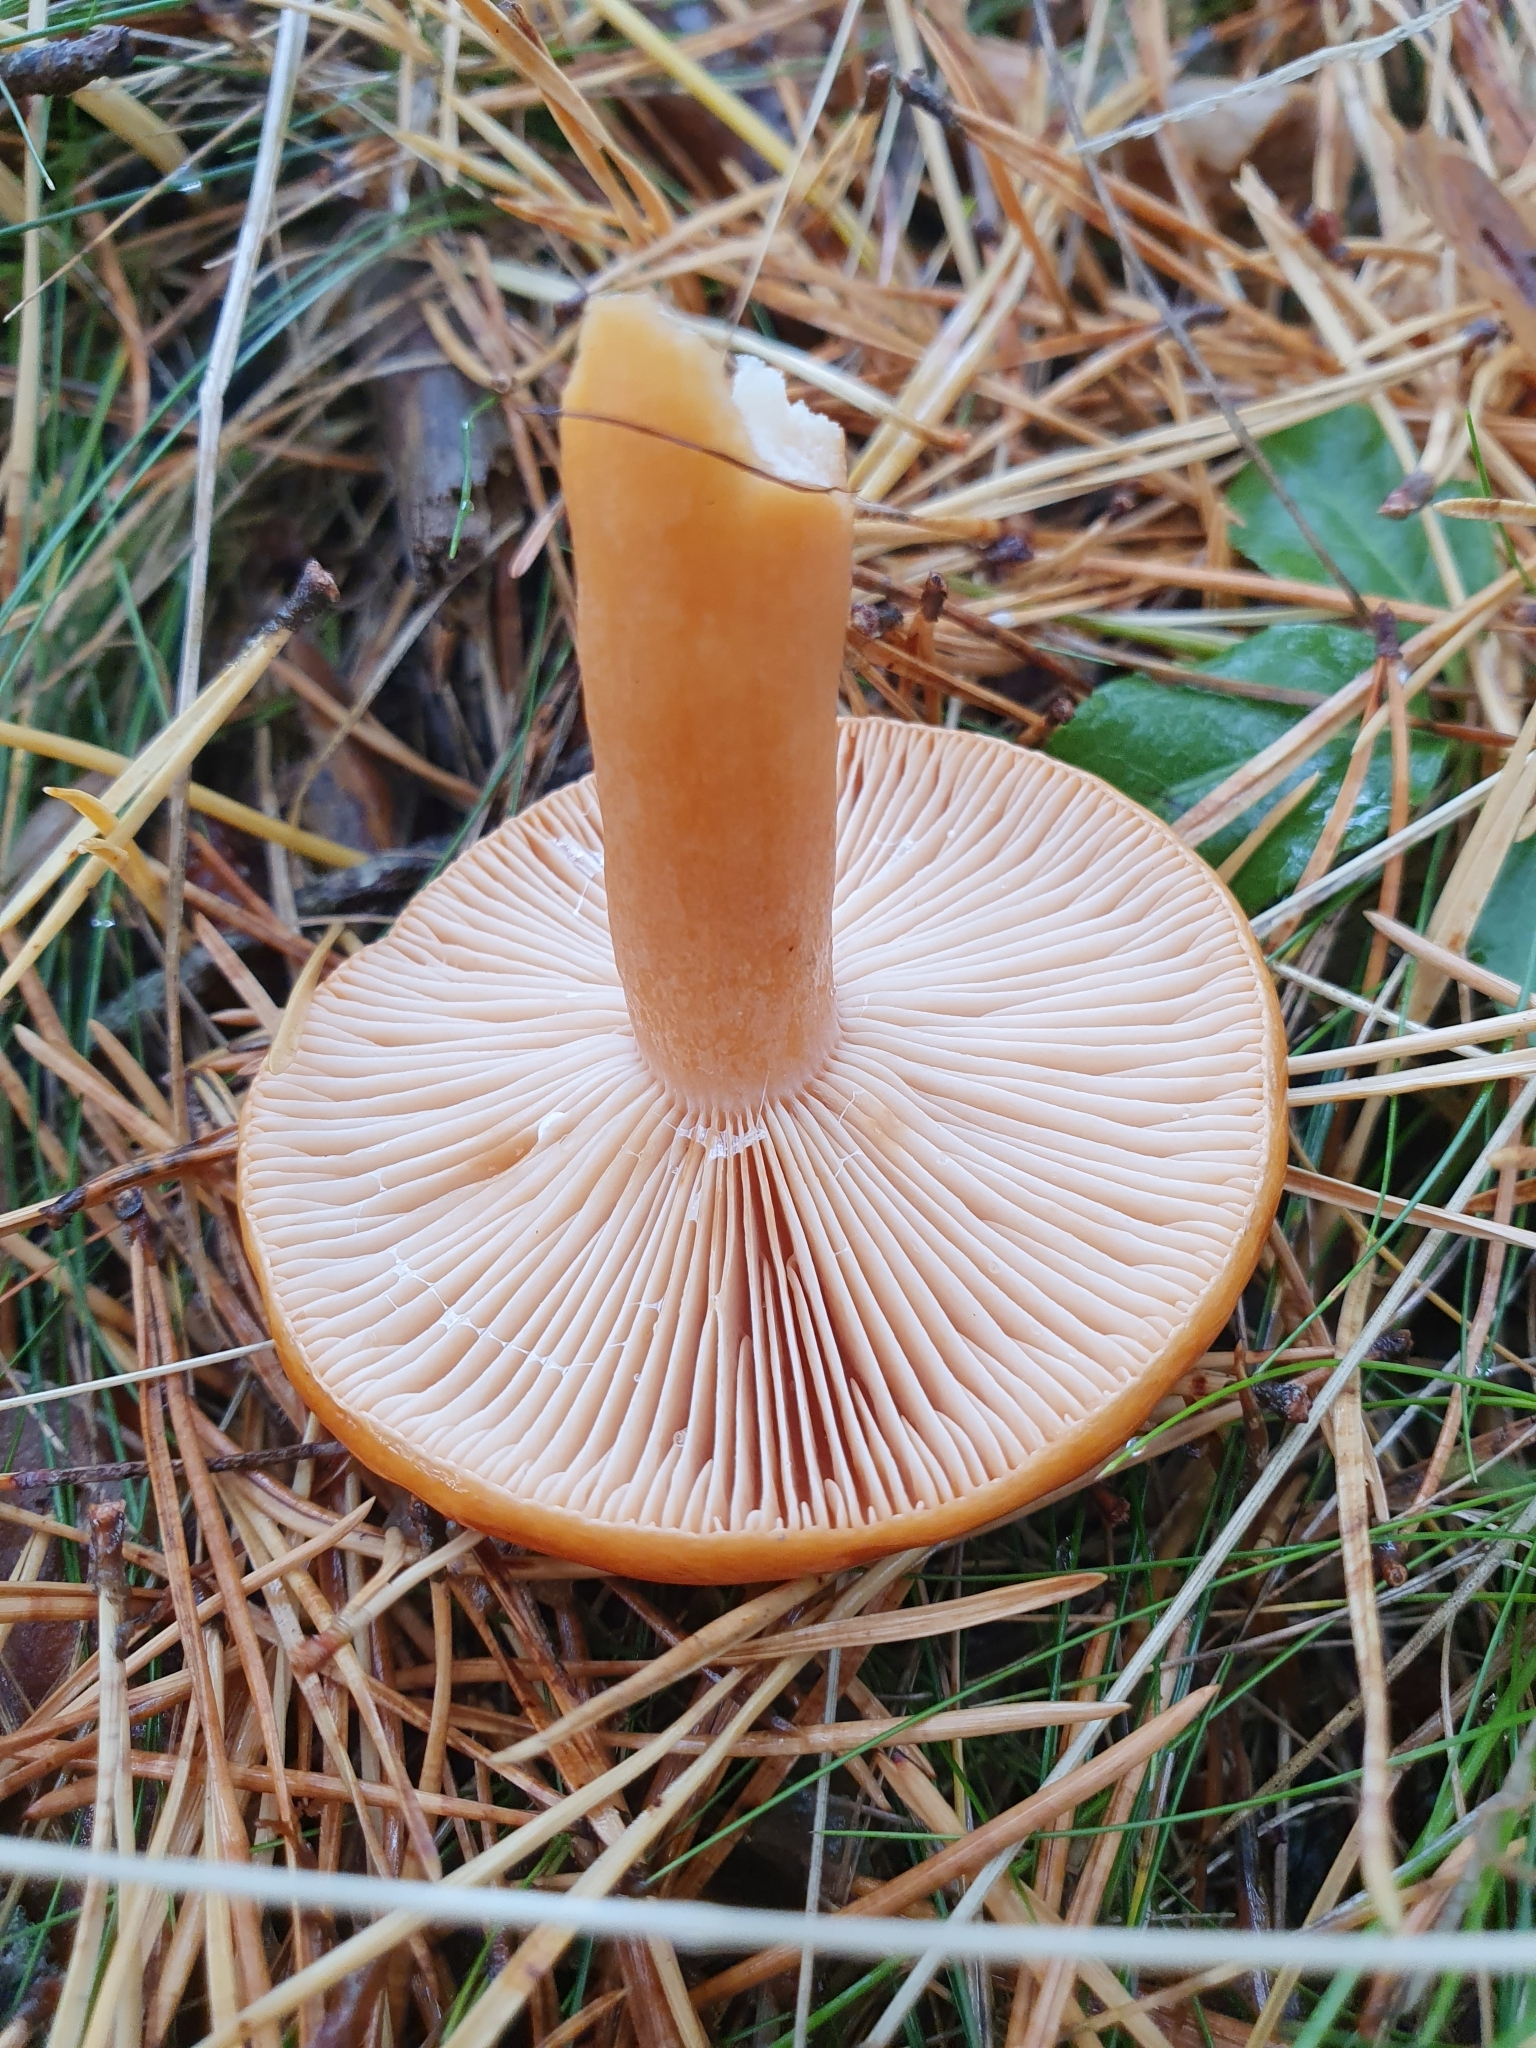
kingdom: Fungi
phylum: Basidiomycota
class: Agaricomycetes
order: Russulales
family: Russulaceae
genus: Lactarius
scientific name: Lactarius aurantiacus
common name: Orange milkcap
